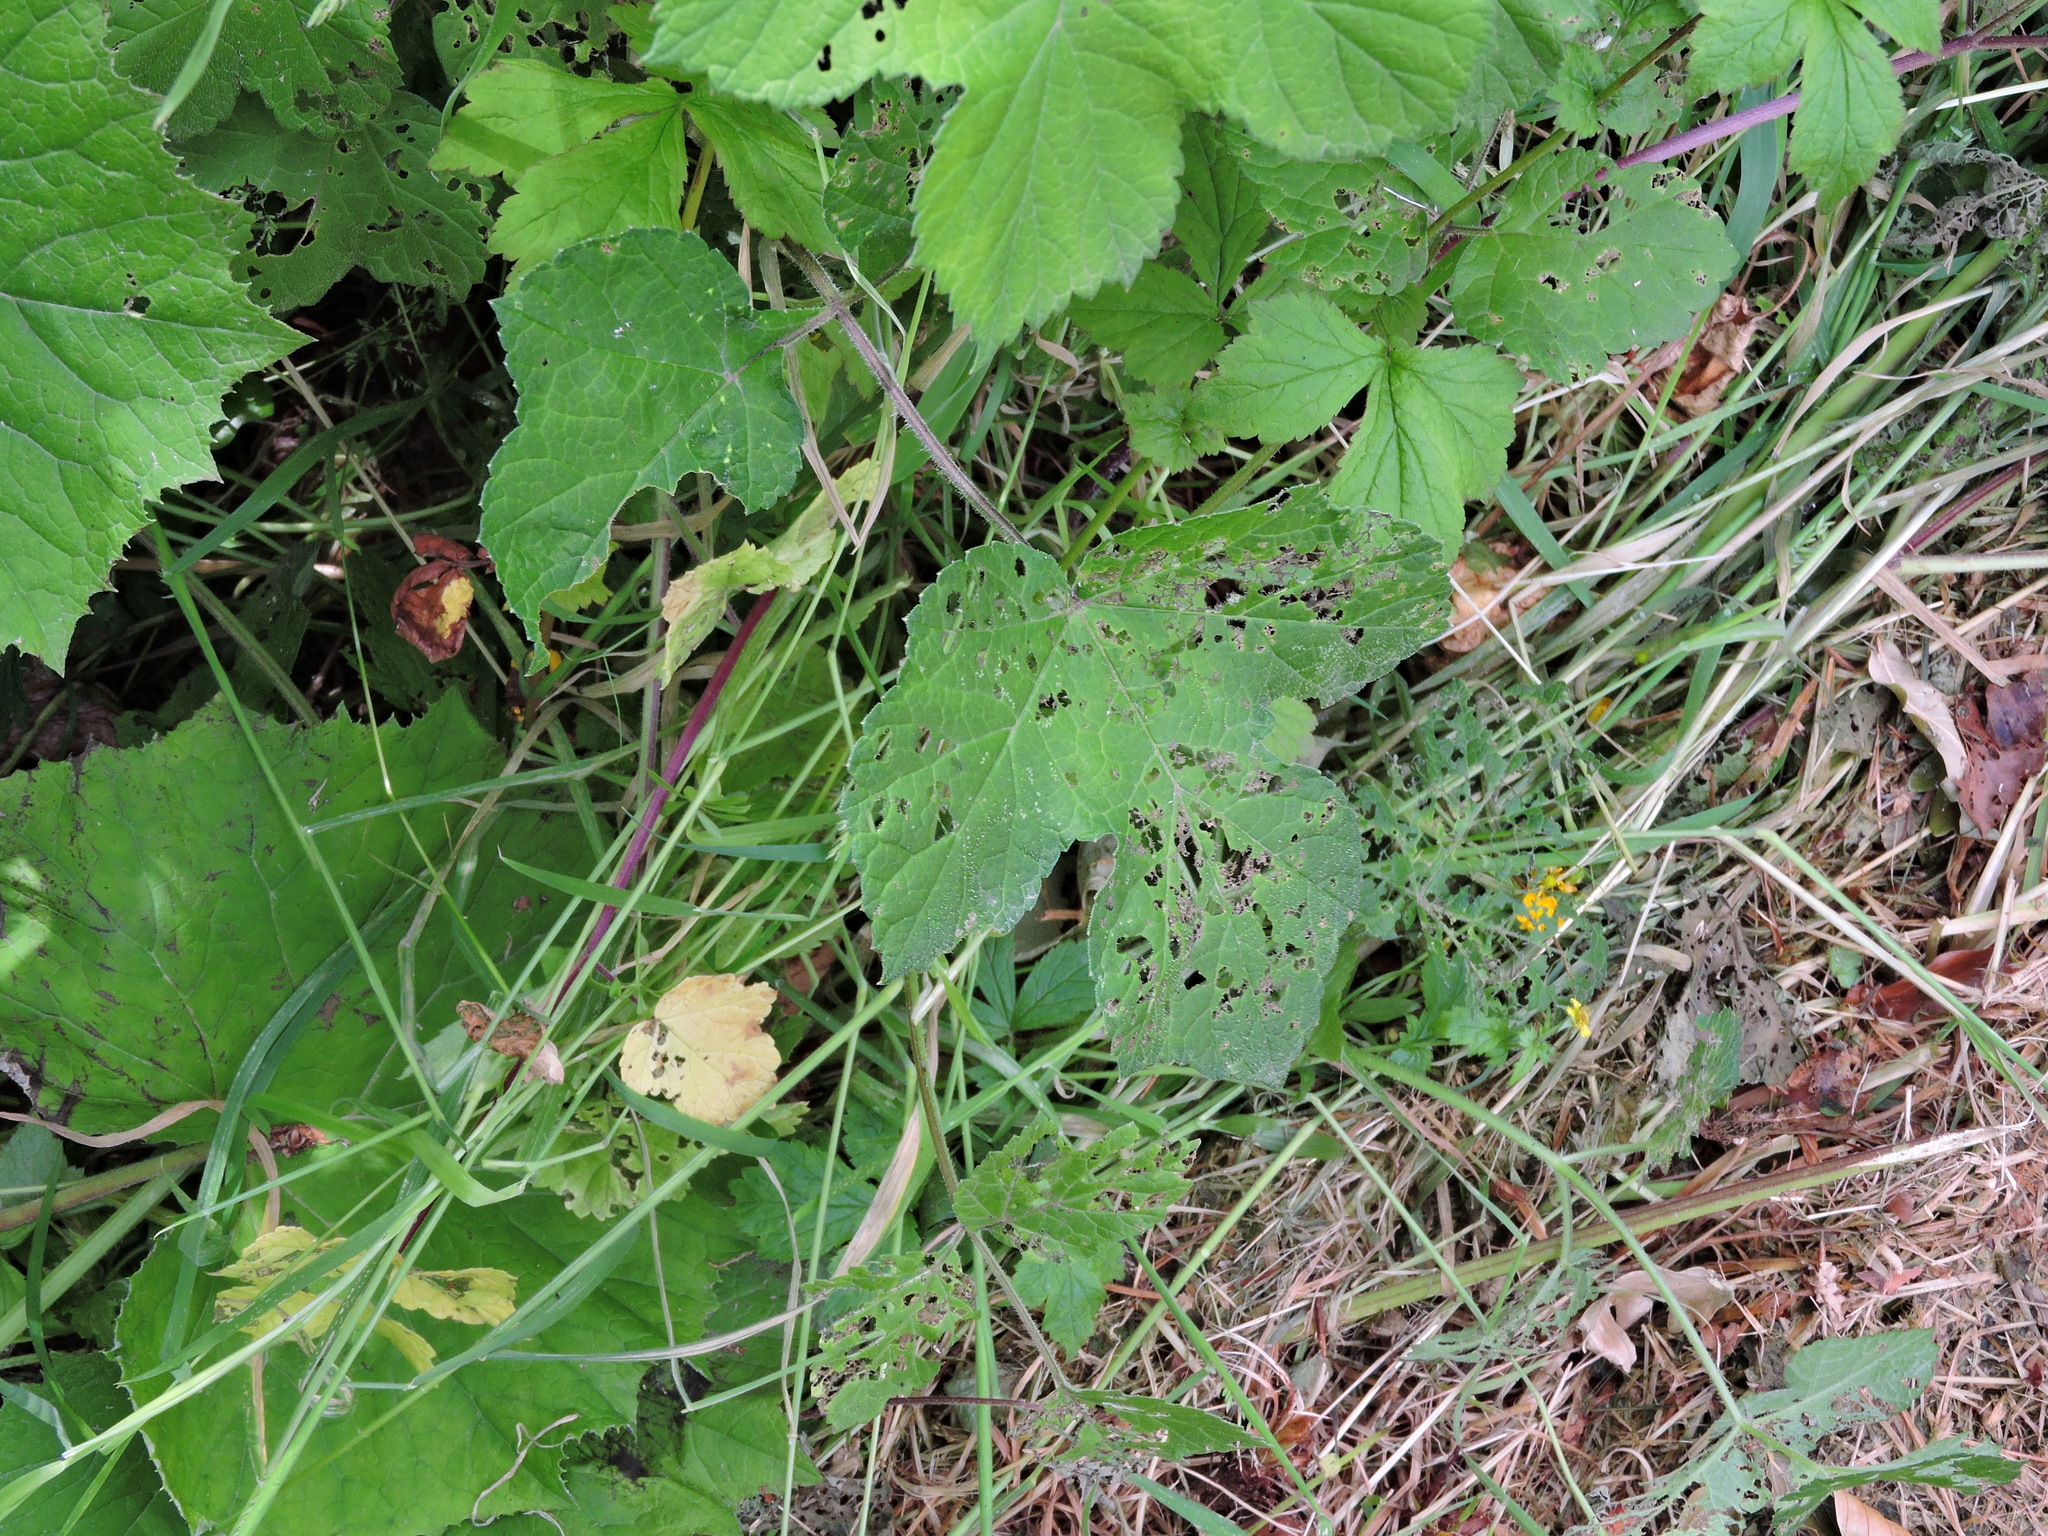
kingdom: Plantae
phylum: Tracheophyta
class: Magnoliopsida
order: Apiales
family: Apiaceae
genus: Heracleum
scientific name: Heracleum sphondylium
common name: Hogweed
